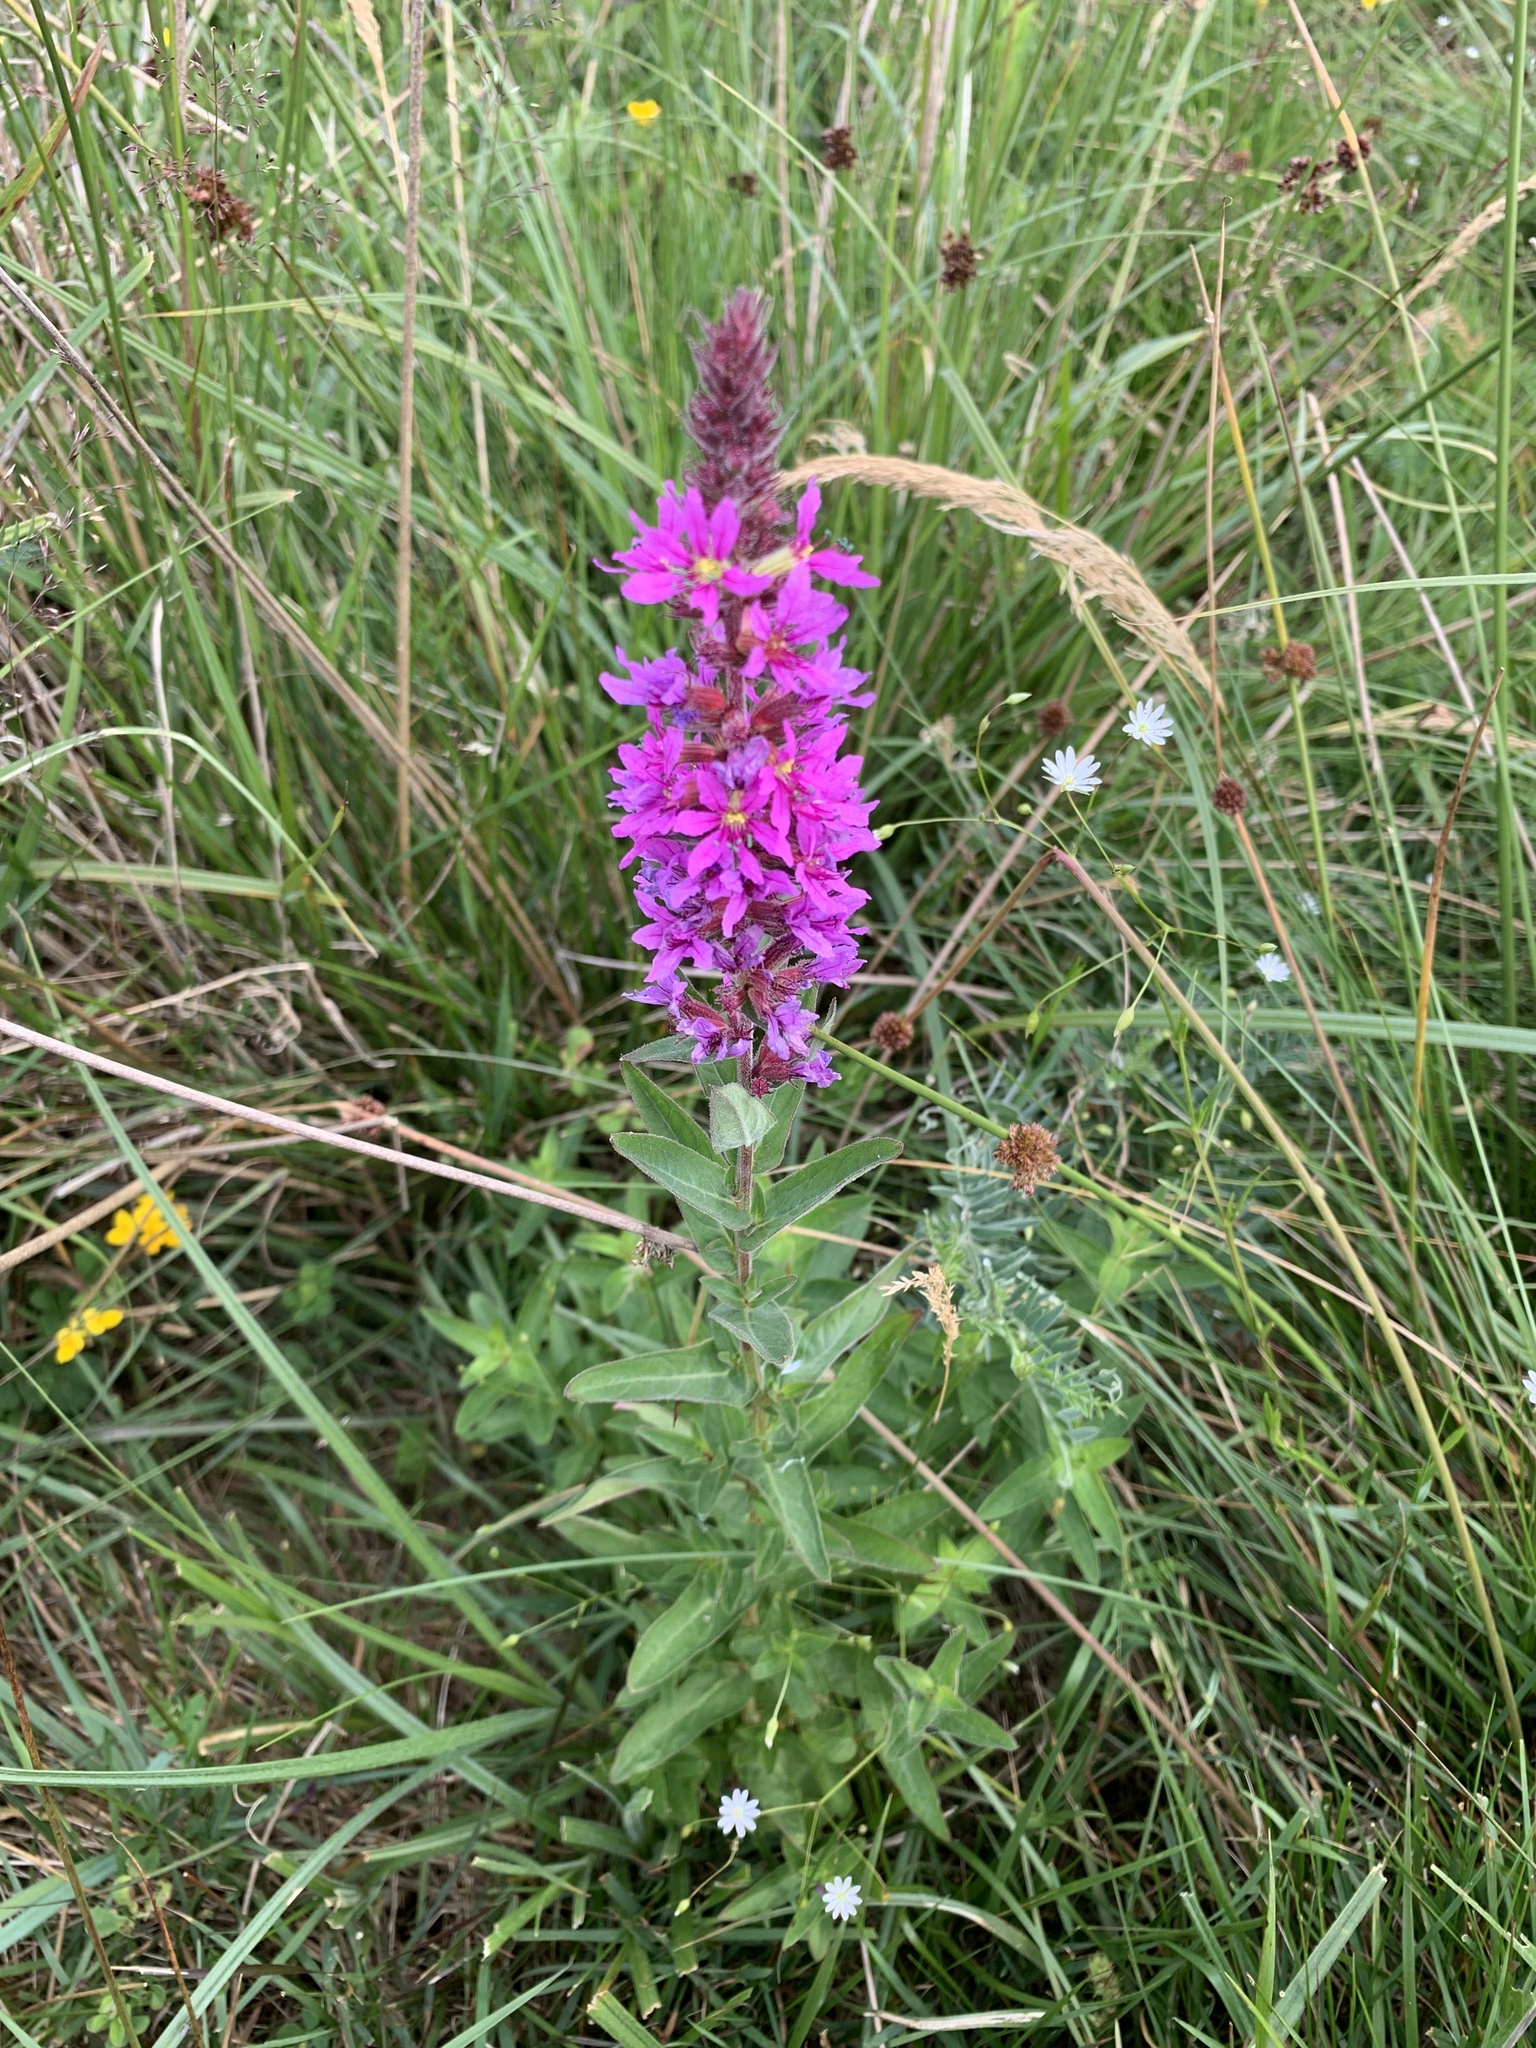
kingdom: Plantae
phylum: Tracheophyta
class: Magnoliopsida
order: Myrtales
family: Lythraceae
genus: Lythrum
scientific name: Lythrum salicaria
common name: Purple loosestrife
